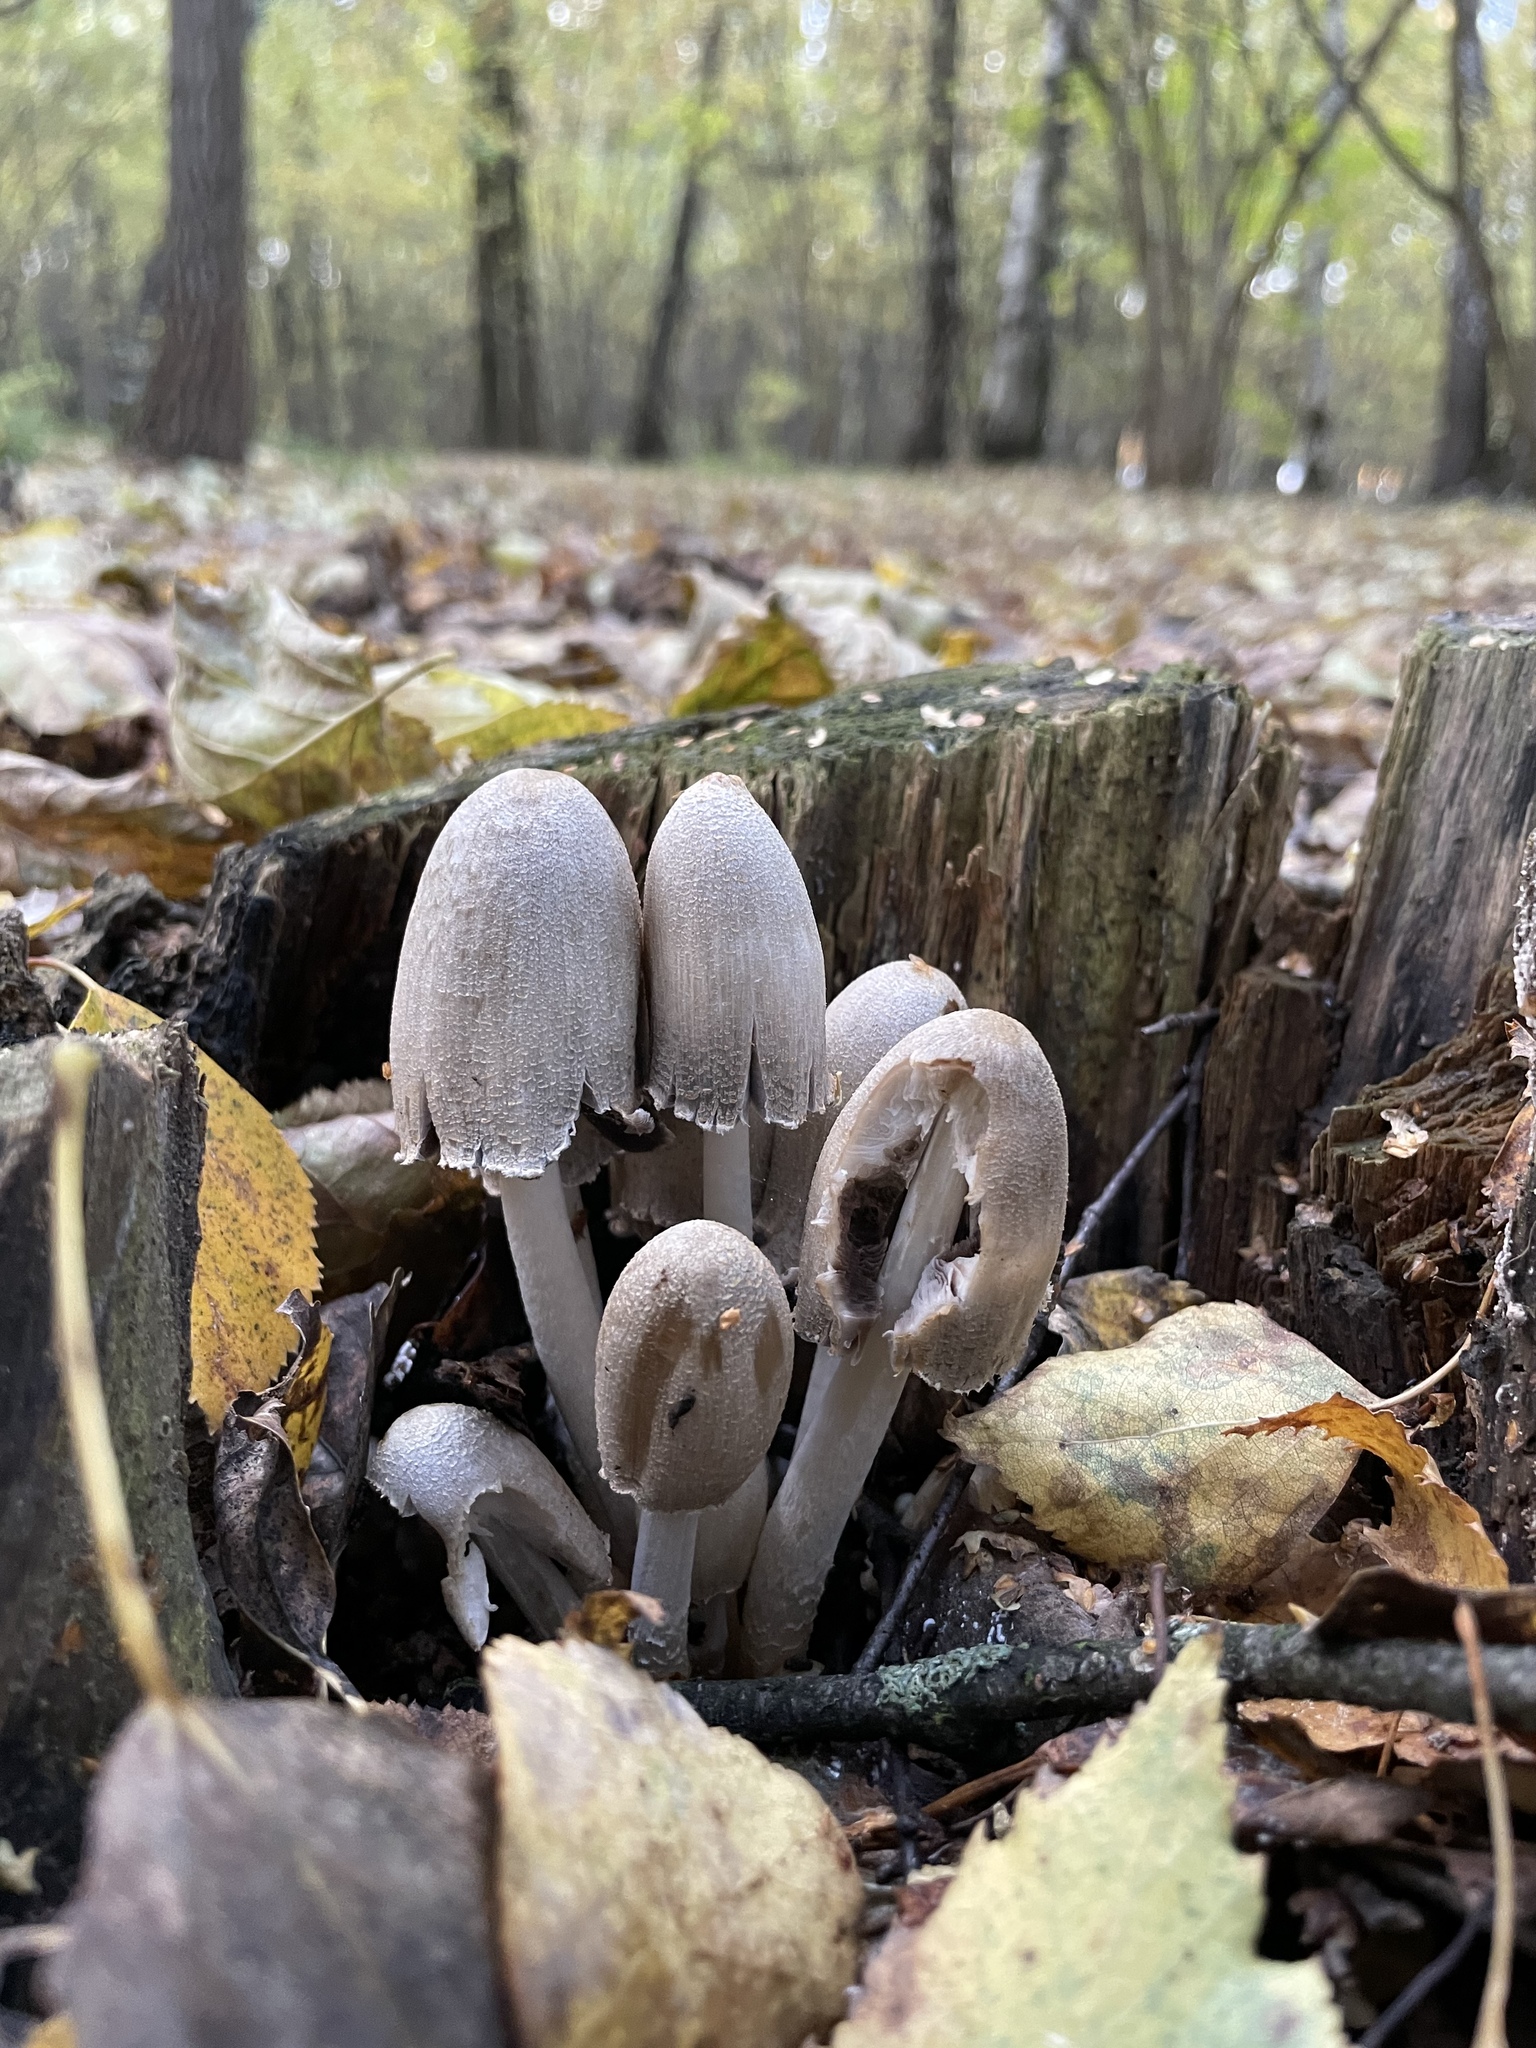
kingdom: Fungi
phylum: Basidiomycota
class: Agaricomycetes
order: Agaricales
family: Psathyrellaceae
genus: Coprinopsis
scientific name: Coprinopsis atramentaria
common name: Common ink-cap
